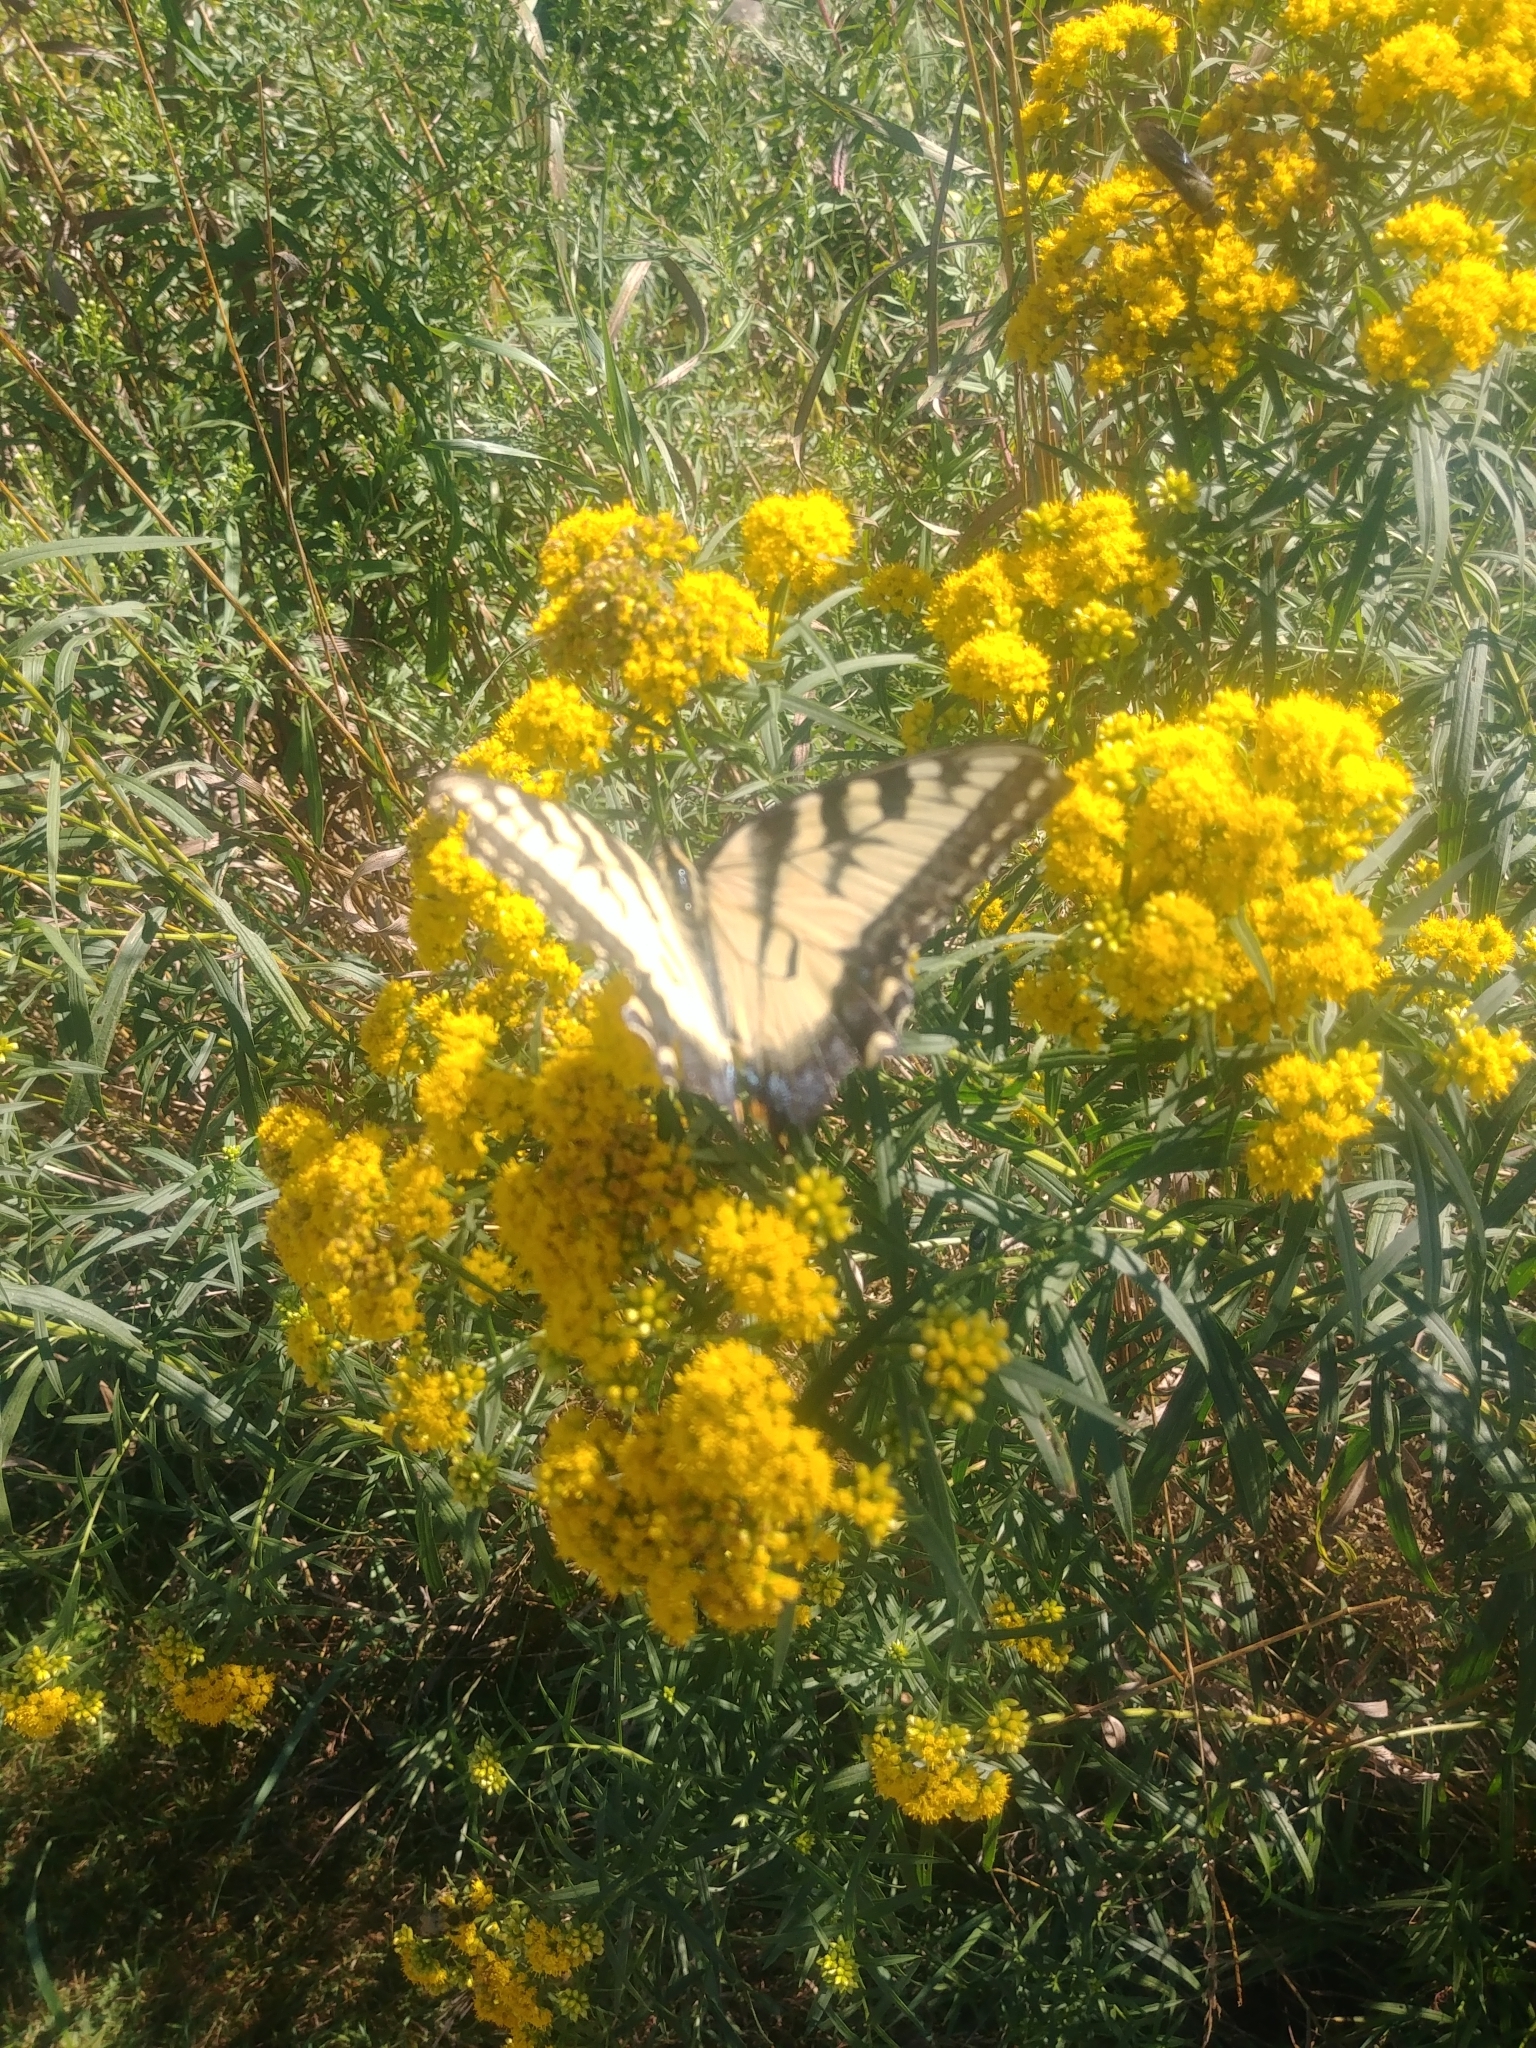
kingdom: Animalia
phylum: Arthropoda
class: Insecta
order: Lepidoptera
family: Papilionidae
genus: Papilio
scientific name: Papilio glaucus
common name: Tiger swallowtail
